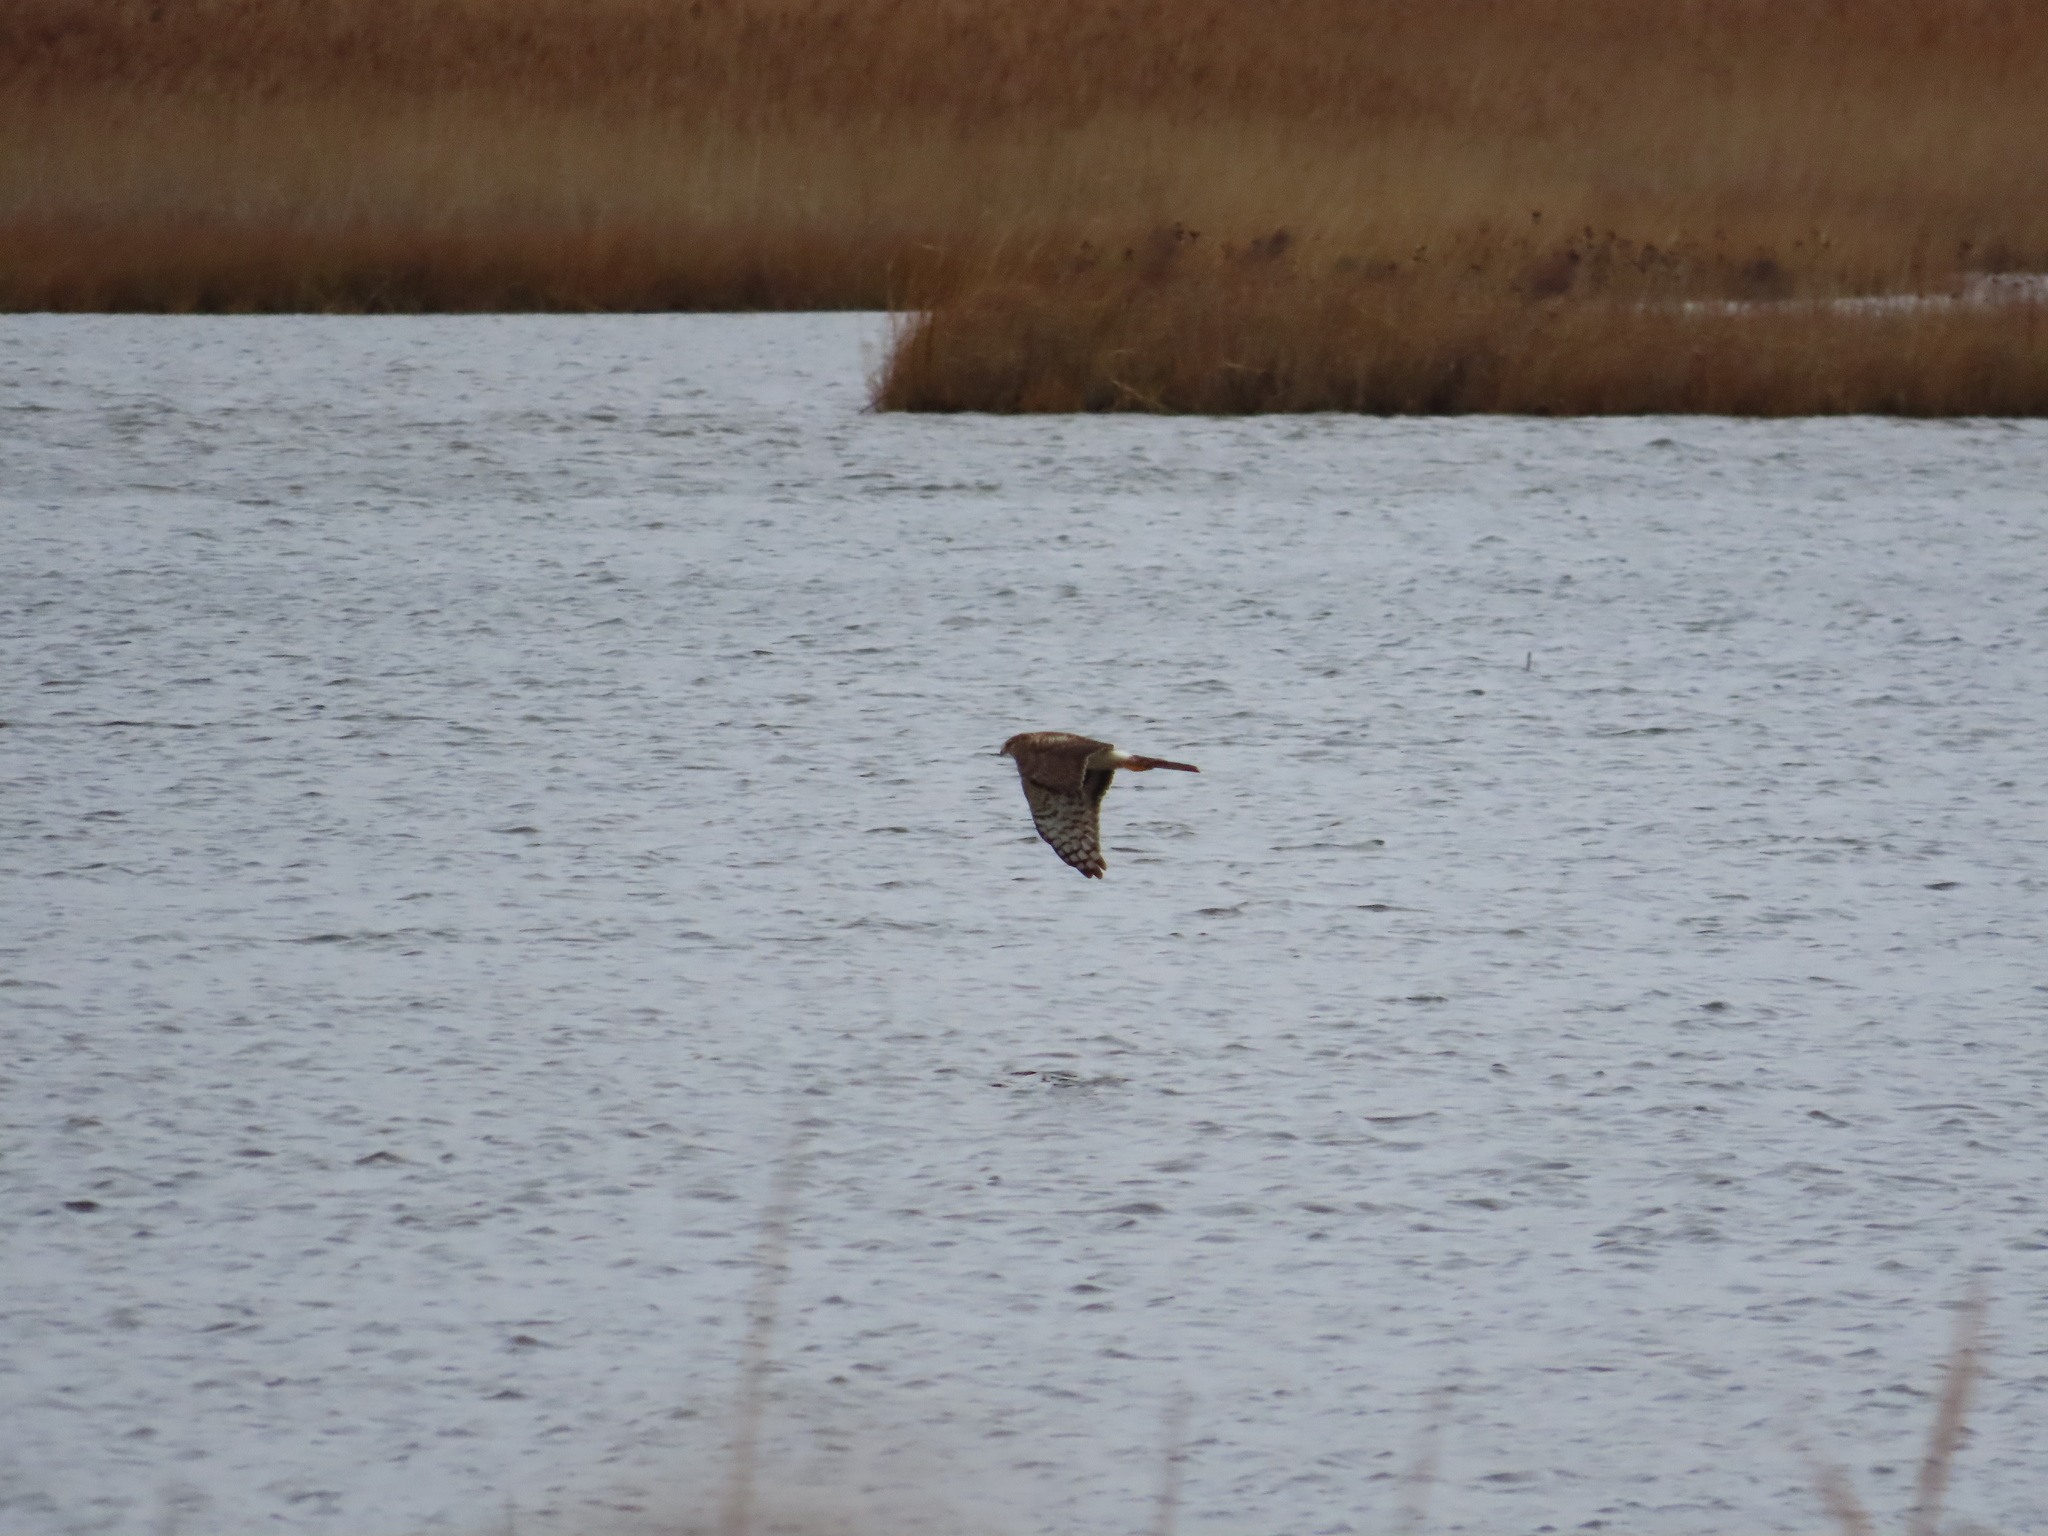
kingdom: Animalia
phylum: Chordata
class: Aves
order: Accipitriformes
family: Accipitridae
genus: Circus
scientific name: Circus cyaneus
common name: Hen harrier
